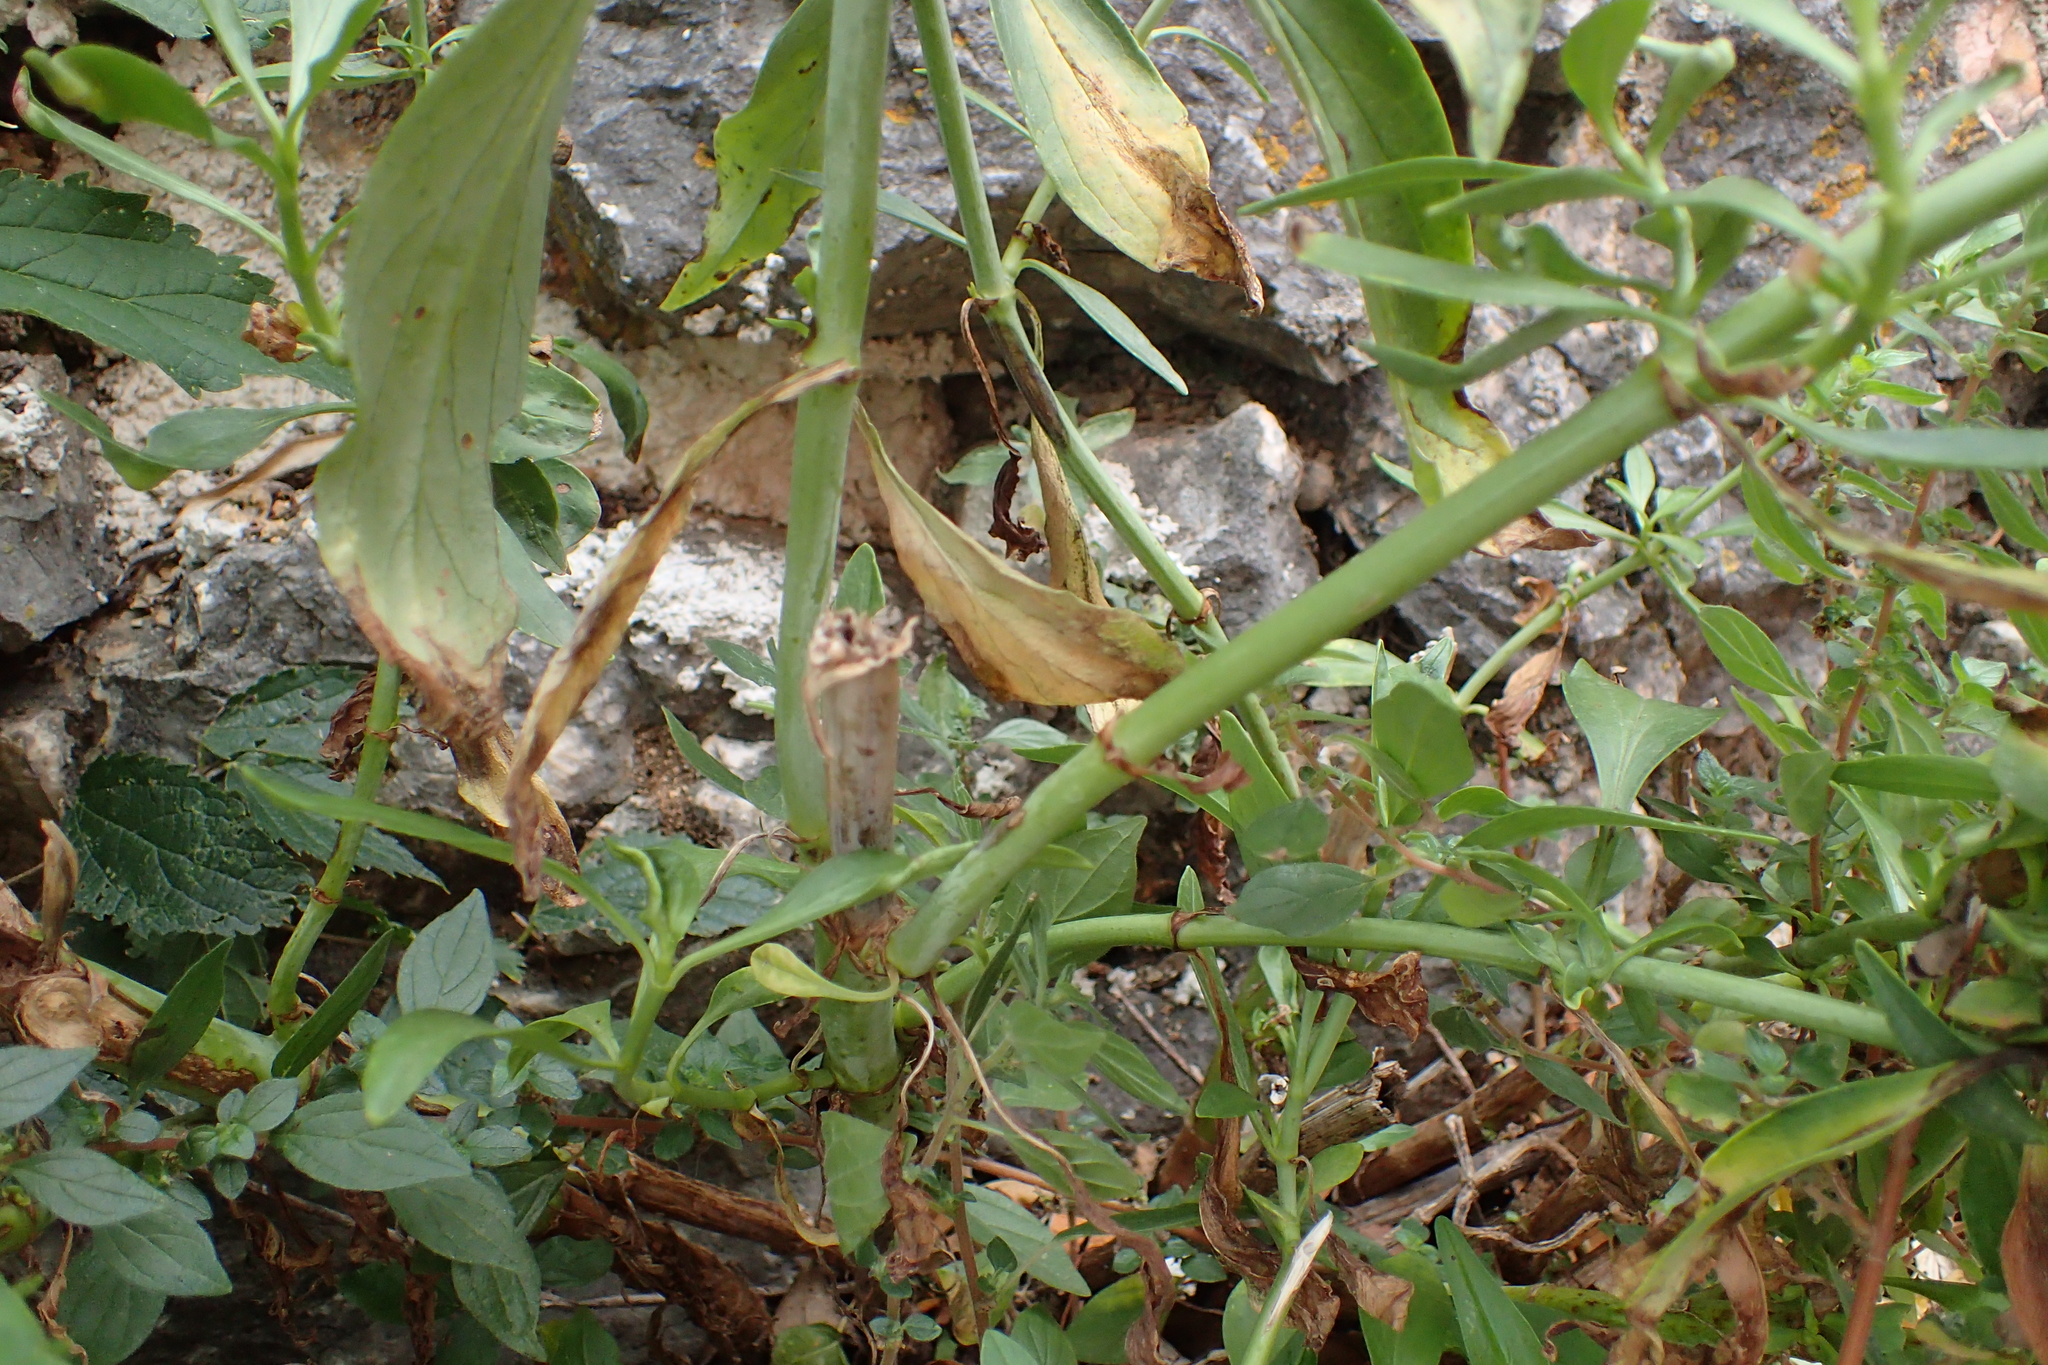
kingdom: Plantae
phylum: Tracheophyta
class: Magnoliopsida
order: Dipsacales
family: Caprifoliaceae
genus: Centranthus
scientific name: Centranthus ruber
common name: Red valerian
